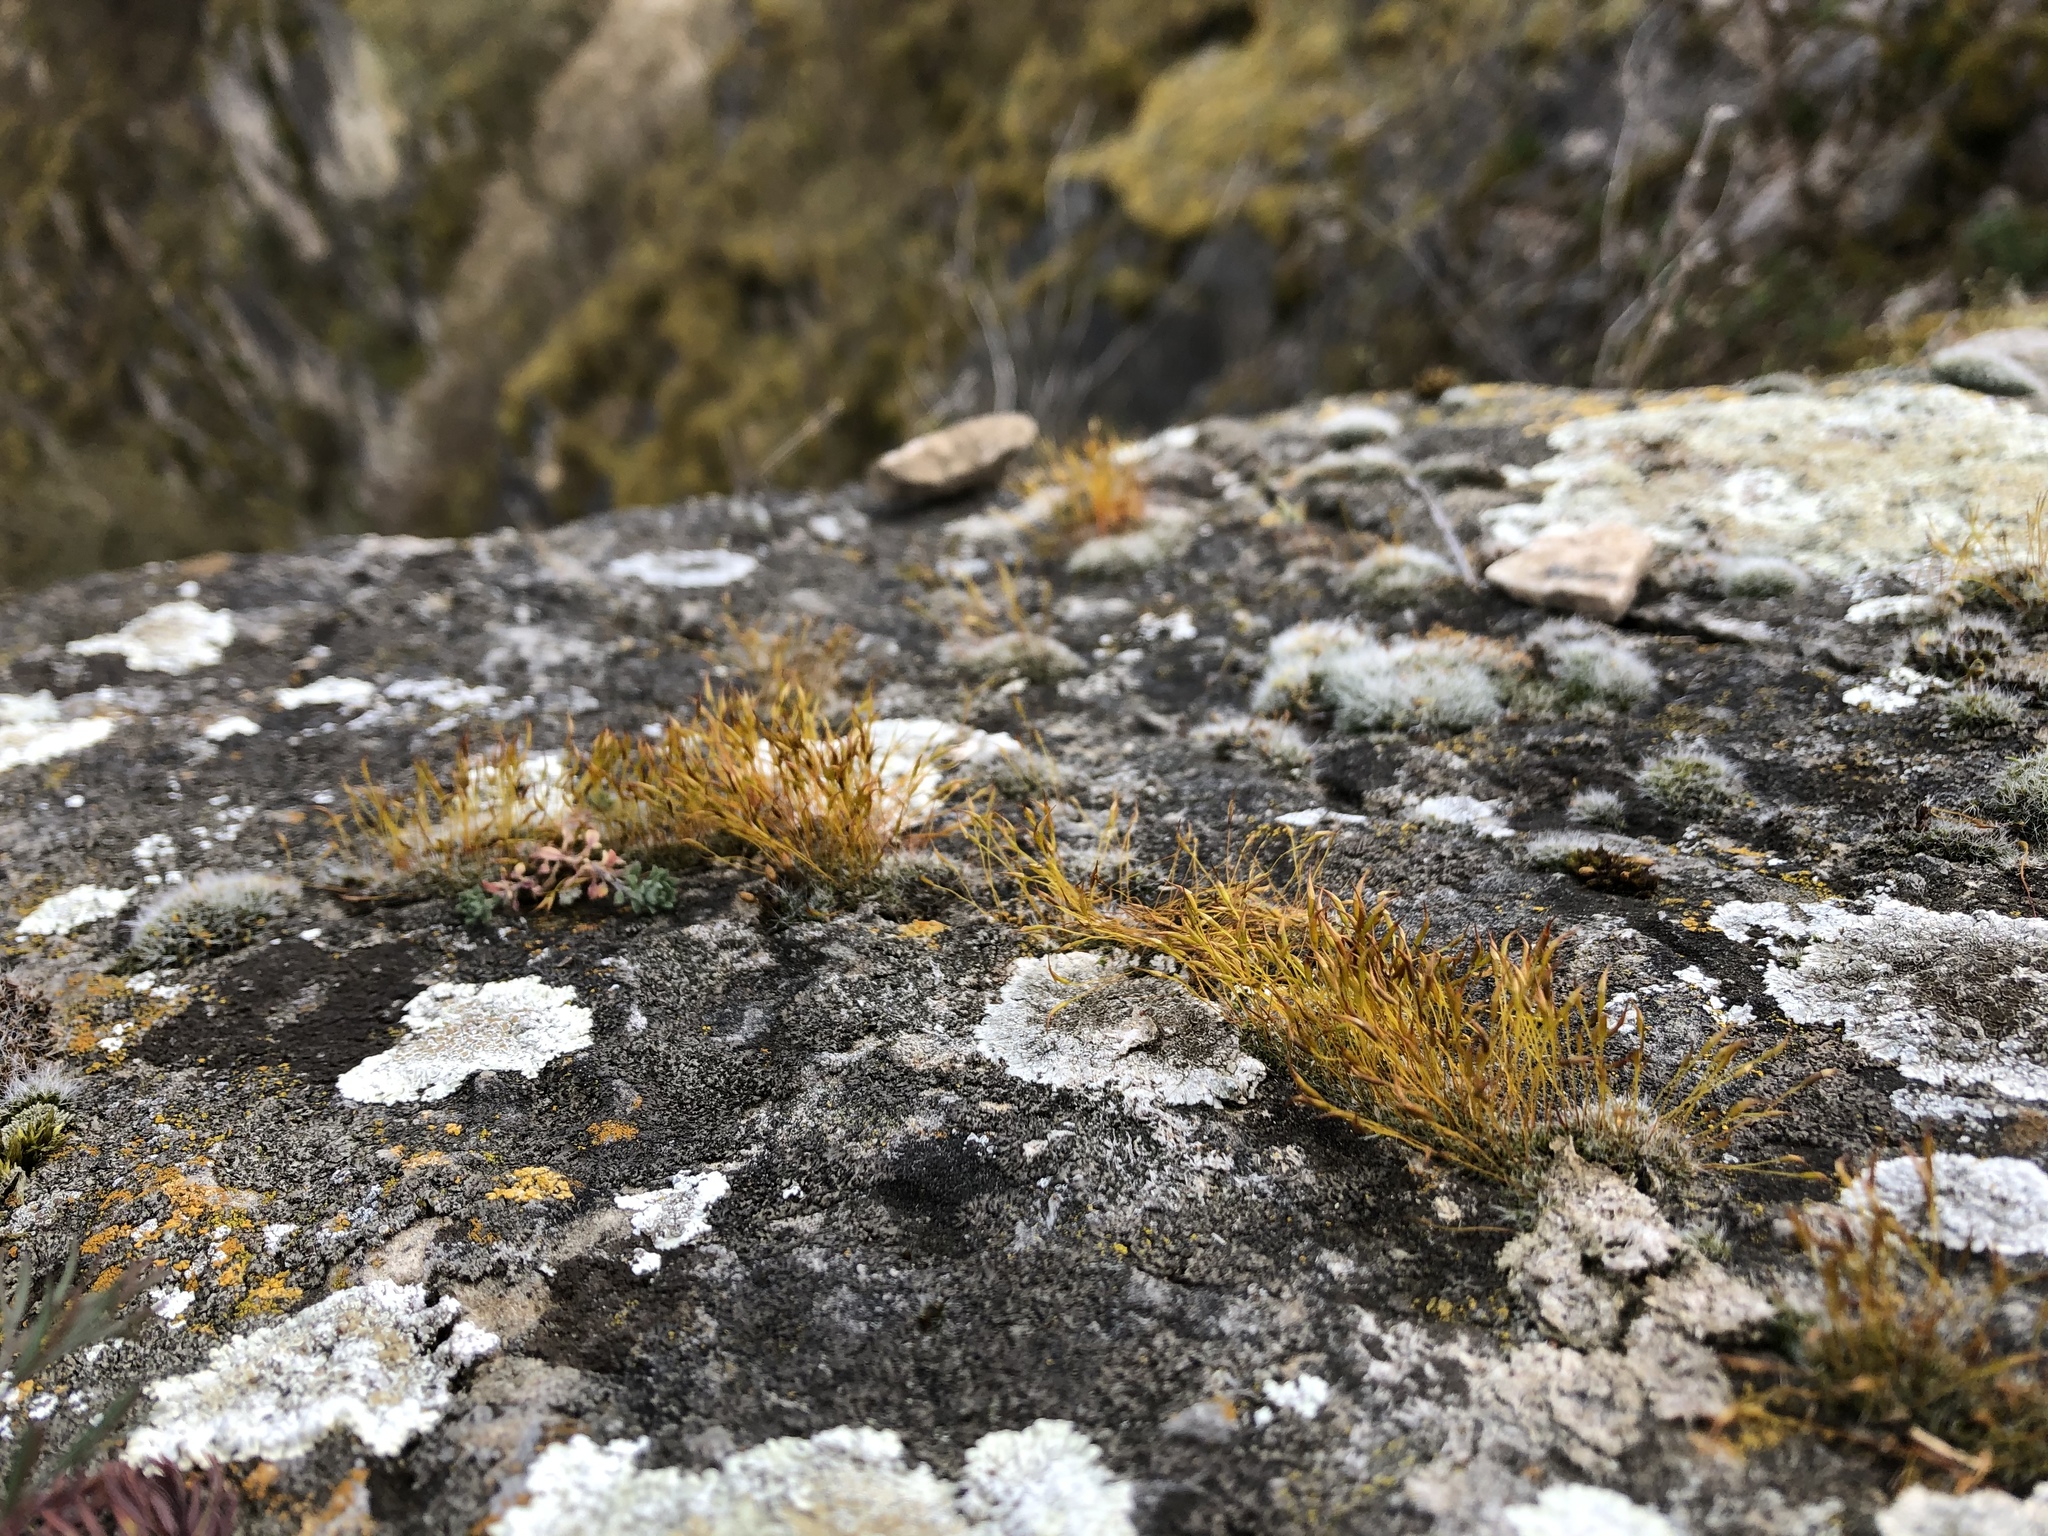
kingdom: Plantae
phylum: Bryophyta
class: Bryopsida
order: Pottiales
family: Pottiaceae
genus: Tortula
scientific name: Tortula muralis
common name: Wall screw-moss
